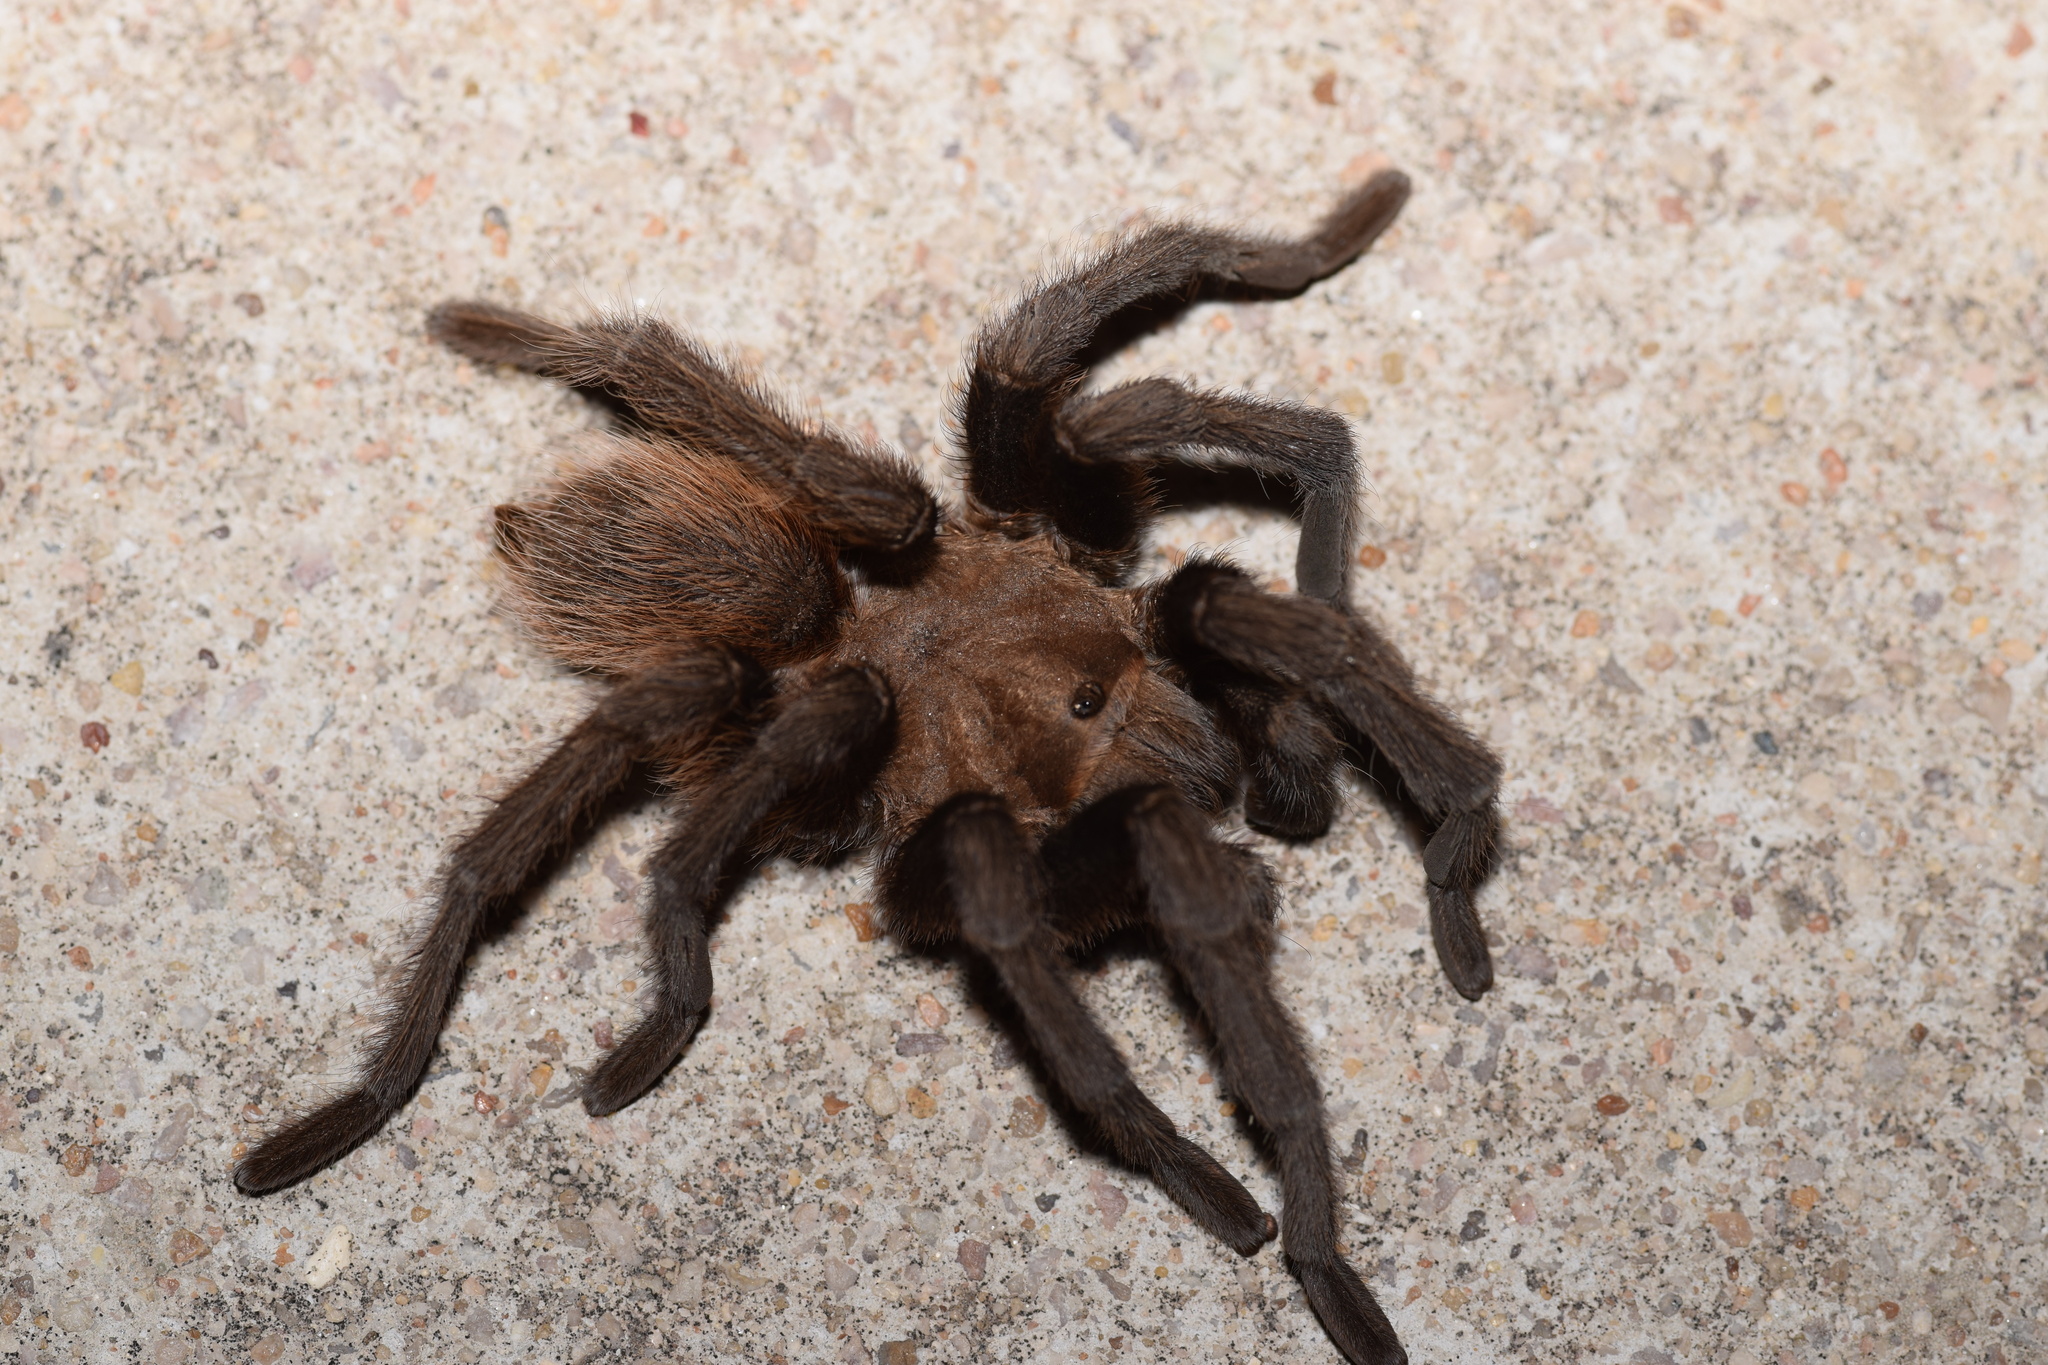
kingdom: Animalia
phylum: Arthropoda
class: Arachnida
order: Araneae
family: Theraphosidae
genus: Aphonopelma
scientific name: Aphonopelma hentzi
